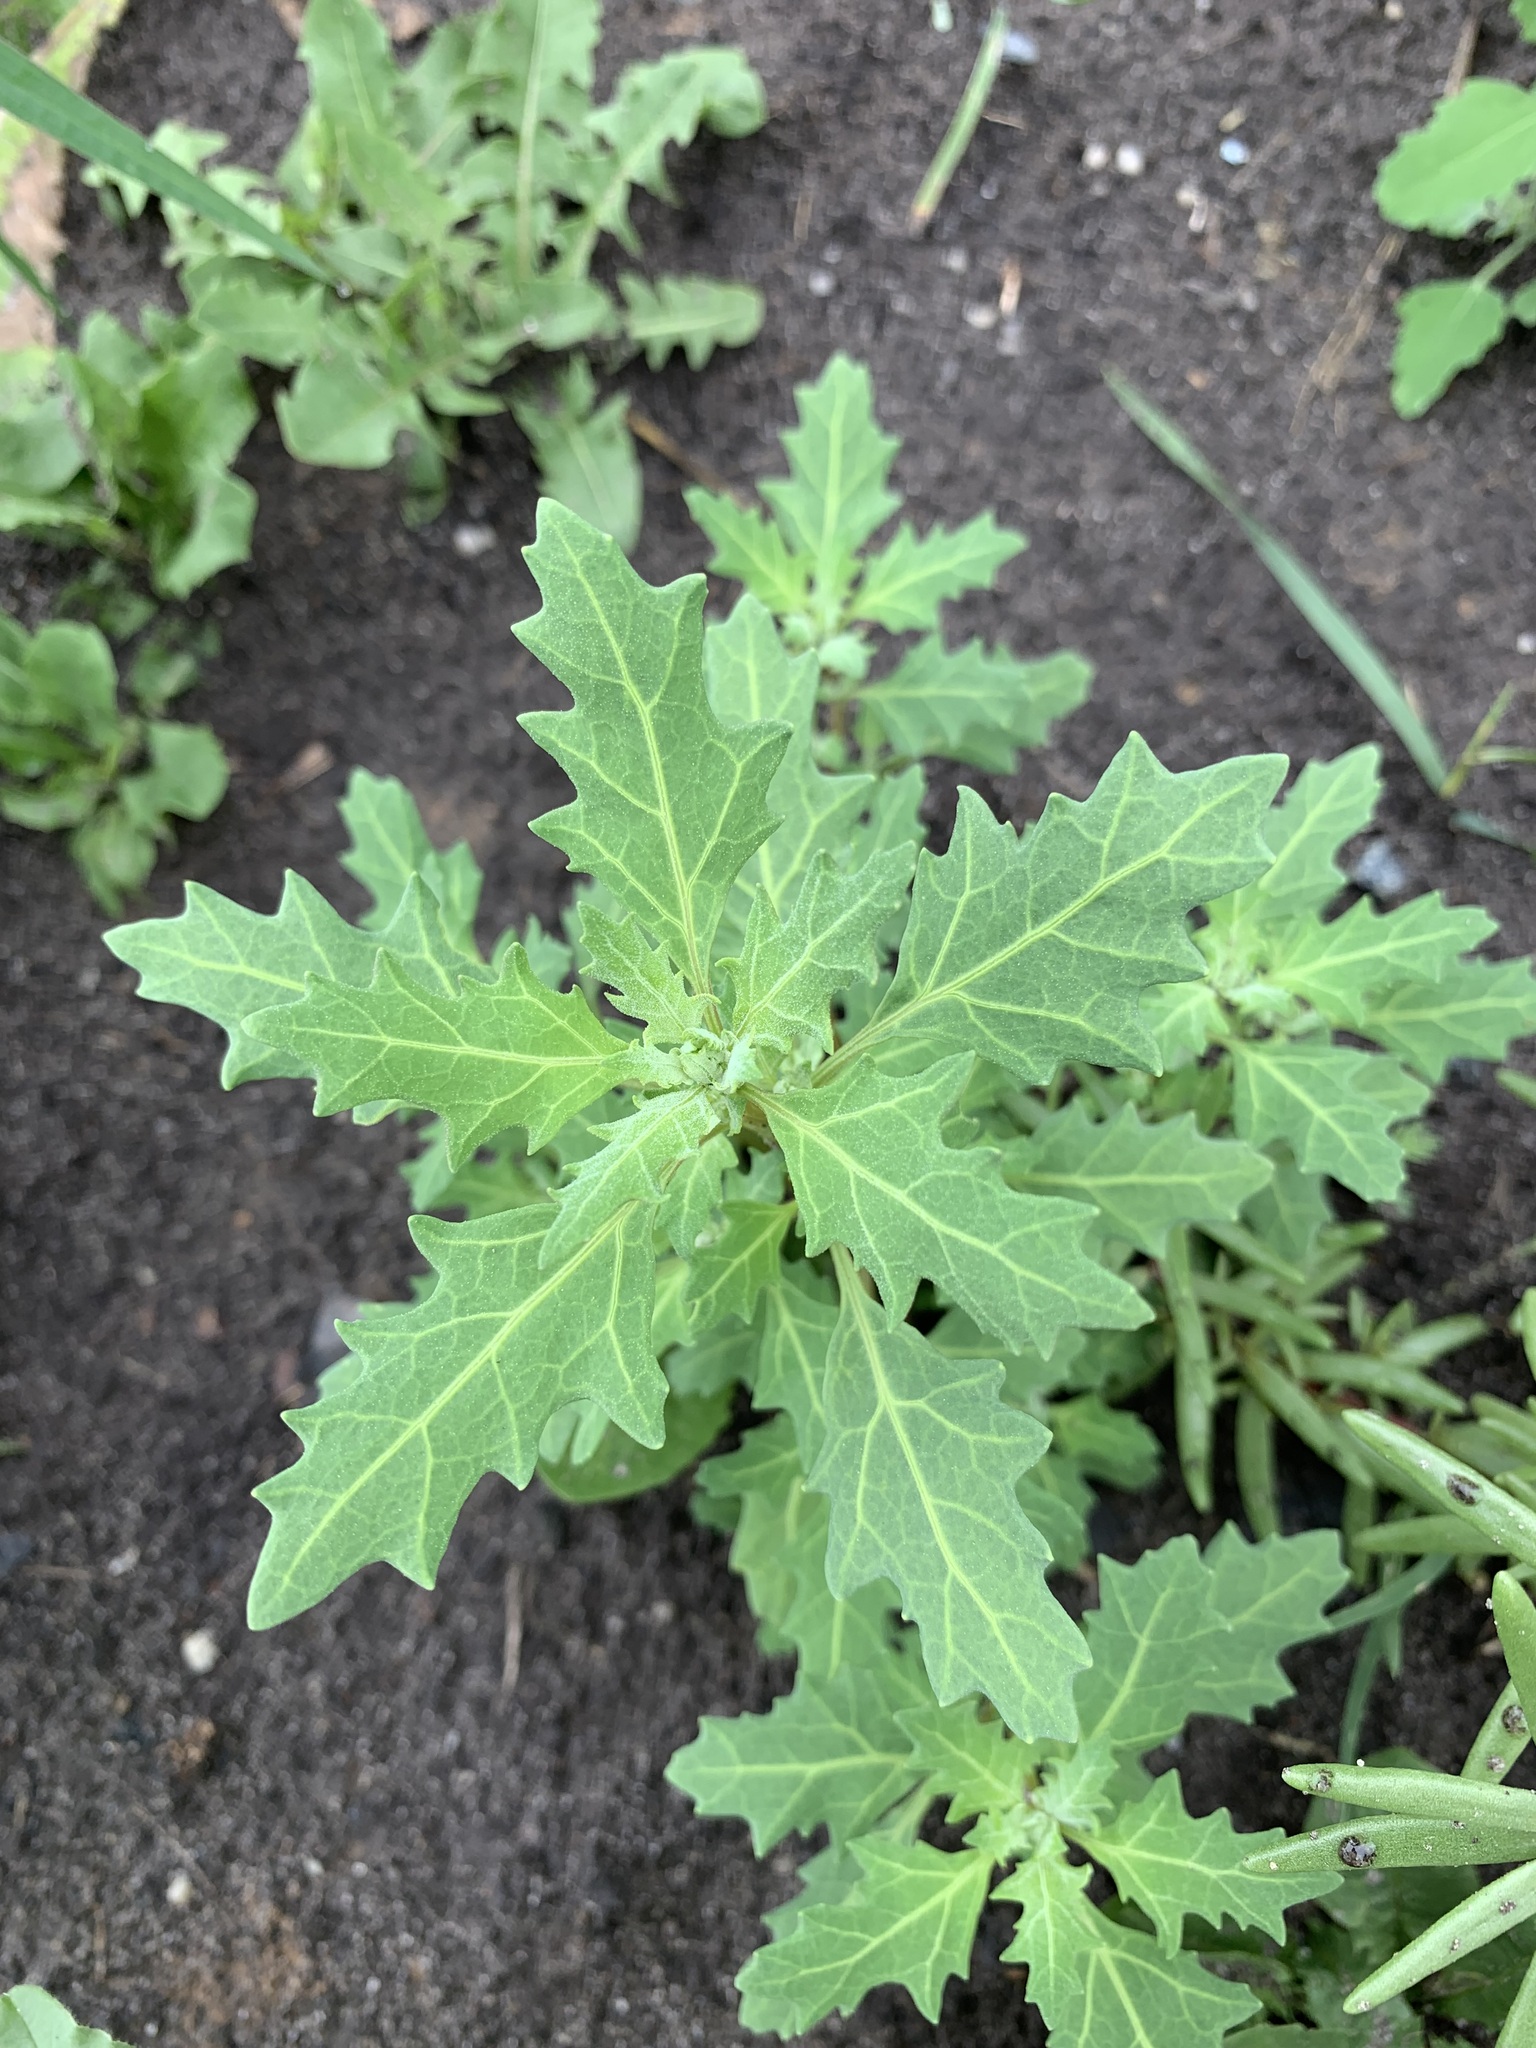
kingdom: Plantae
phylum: Tracheophyta
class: Magnoliopsida
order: Caryophyllales
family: Amaranthaceae
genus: Oxybasis
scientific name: Oxybasis glauca
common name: Glaucous goosefoot
